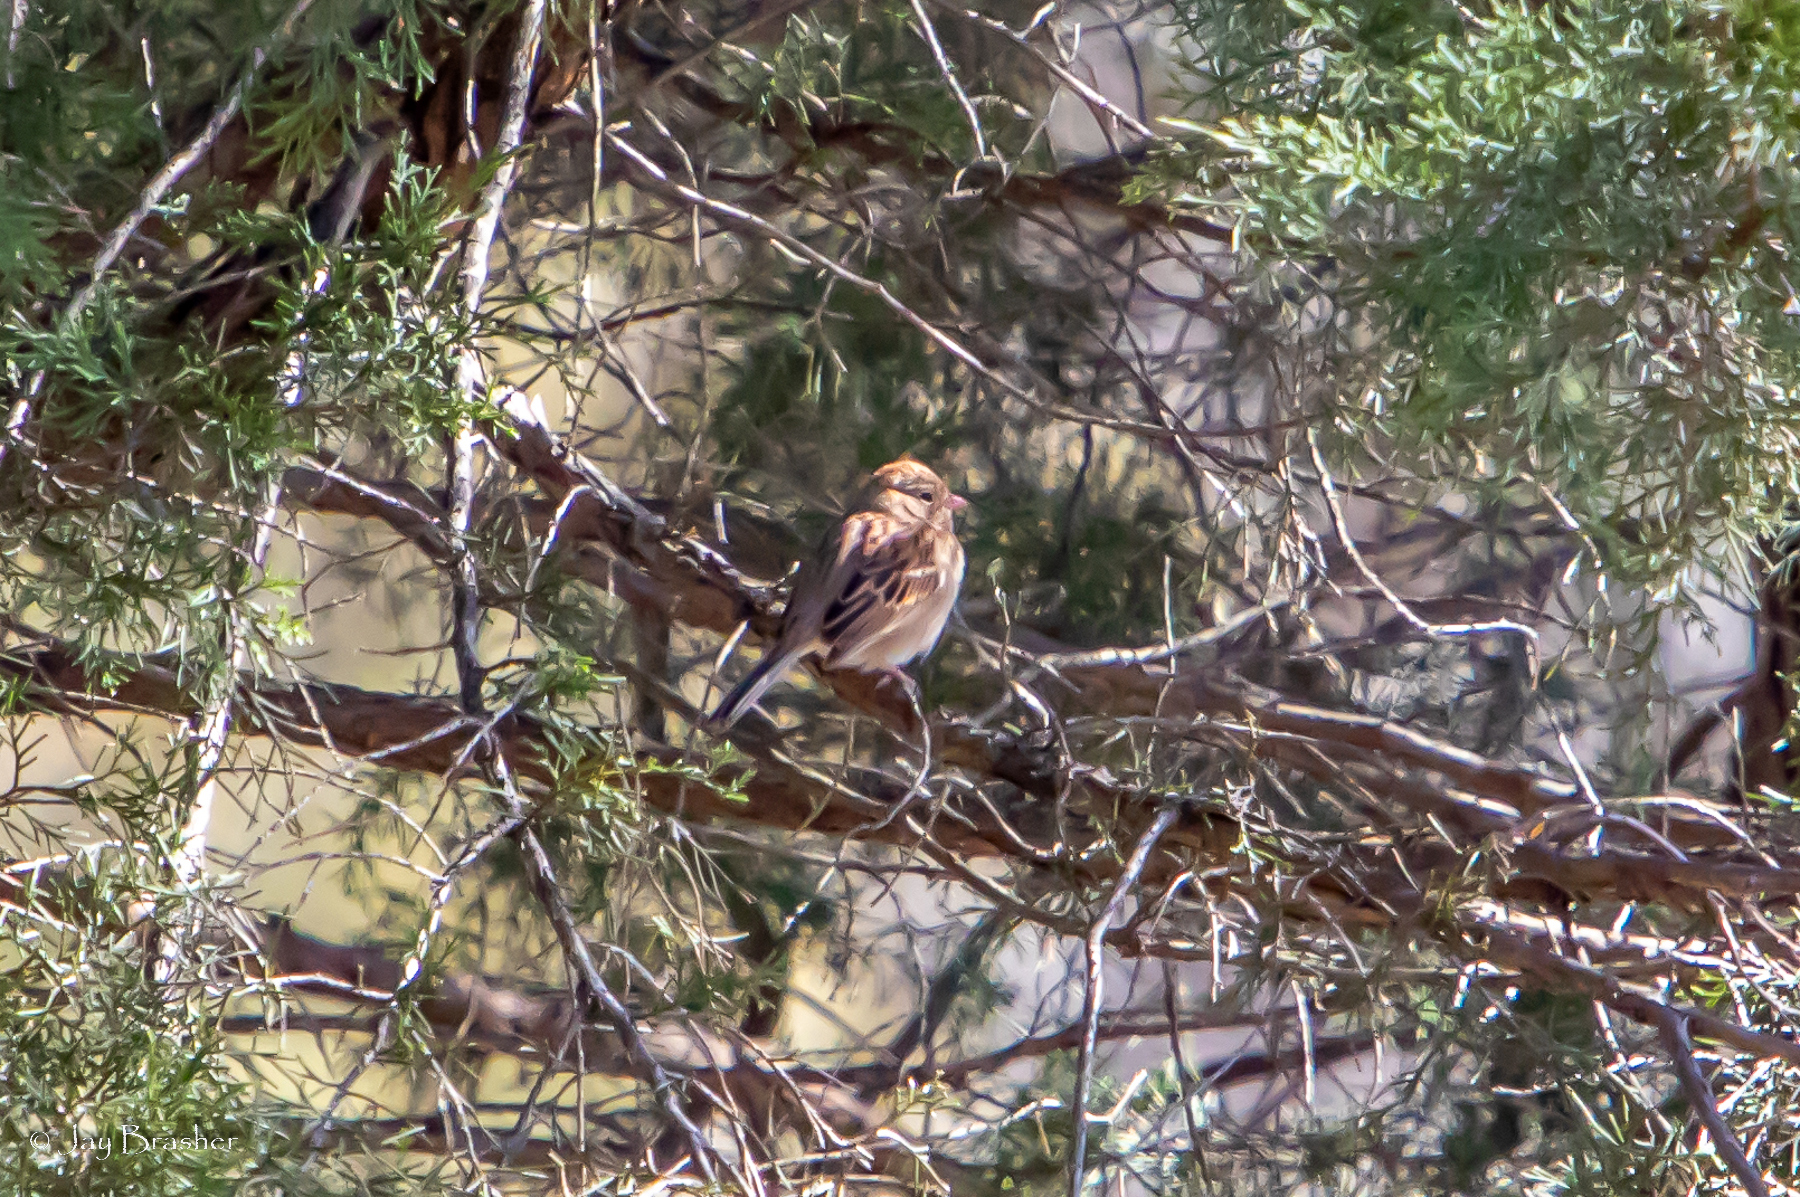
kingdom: Animalia
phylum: Chordata
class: Aves
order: Passeriformes
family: Passerellidae
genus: Spizella
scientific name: Spizella pusilla
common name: Field sparrow
